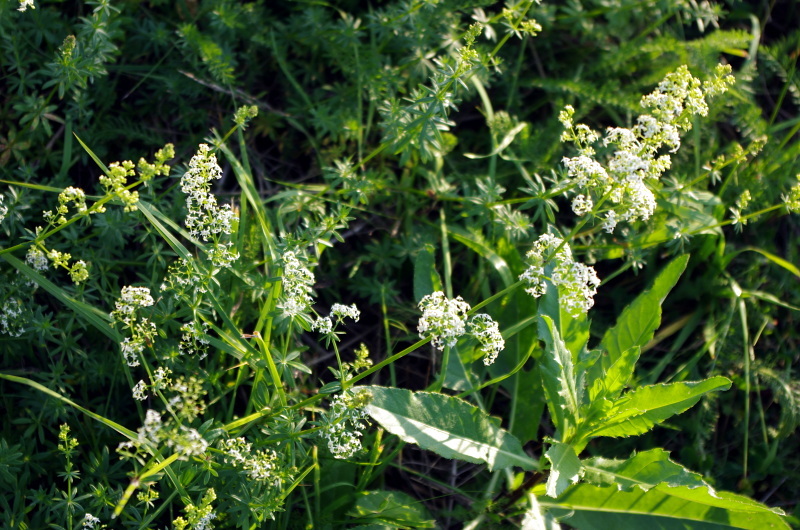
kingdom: Plantae
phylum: Tracheophyta
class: Magnoliopsida
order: Gentianales
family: Rubiaceae
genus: Galium
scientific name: Galium mollugo
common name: Hedge bedstraw
